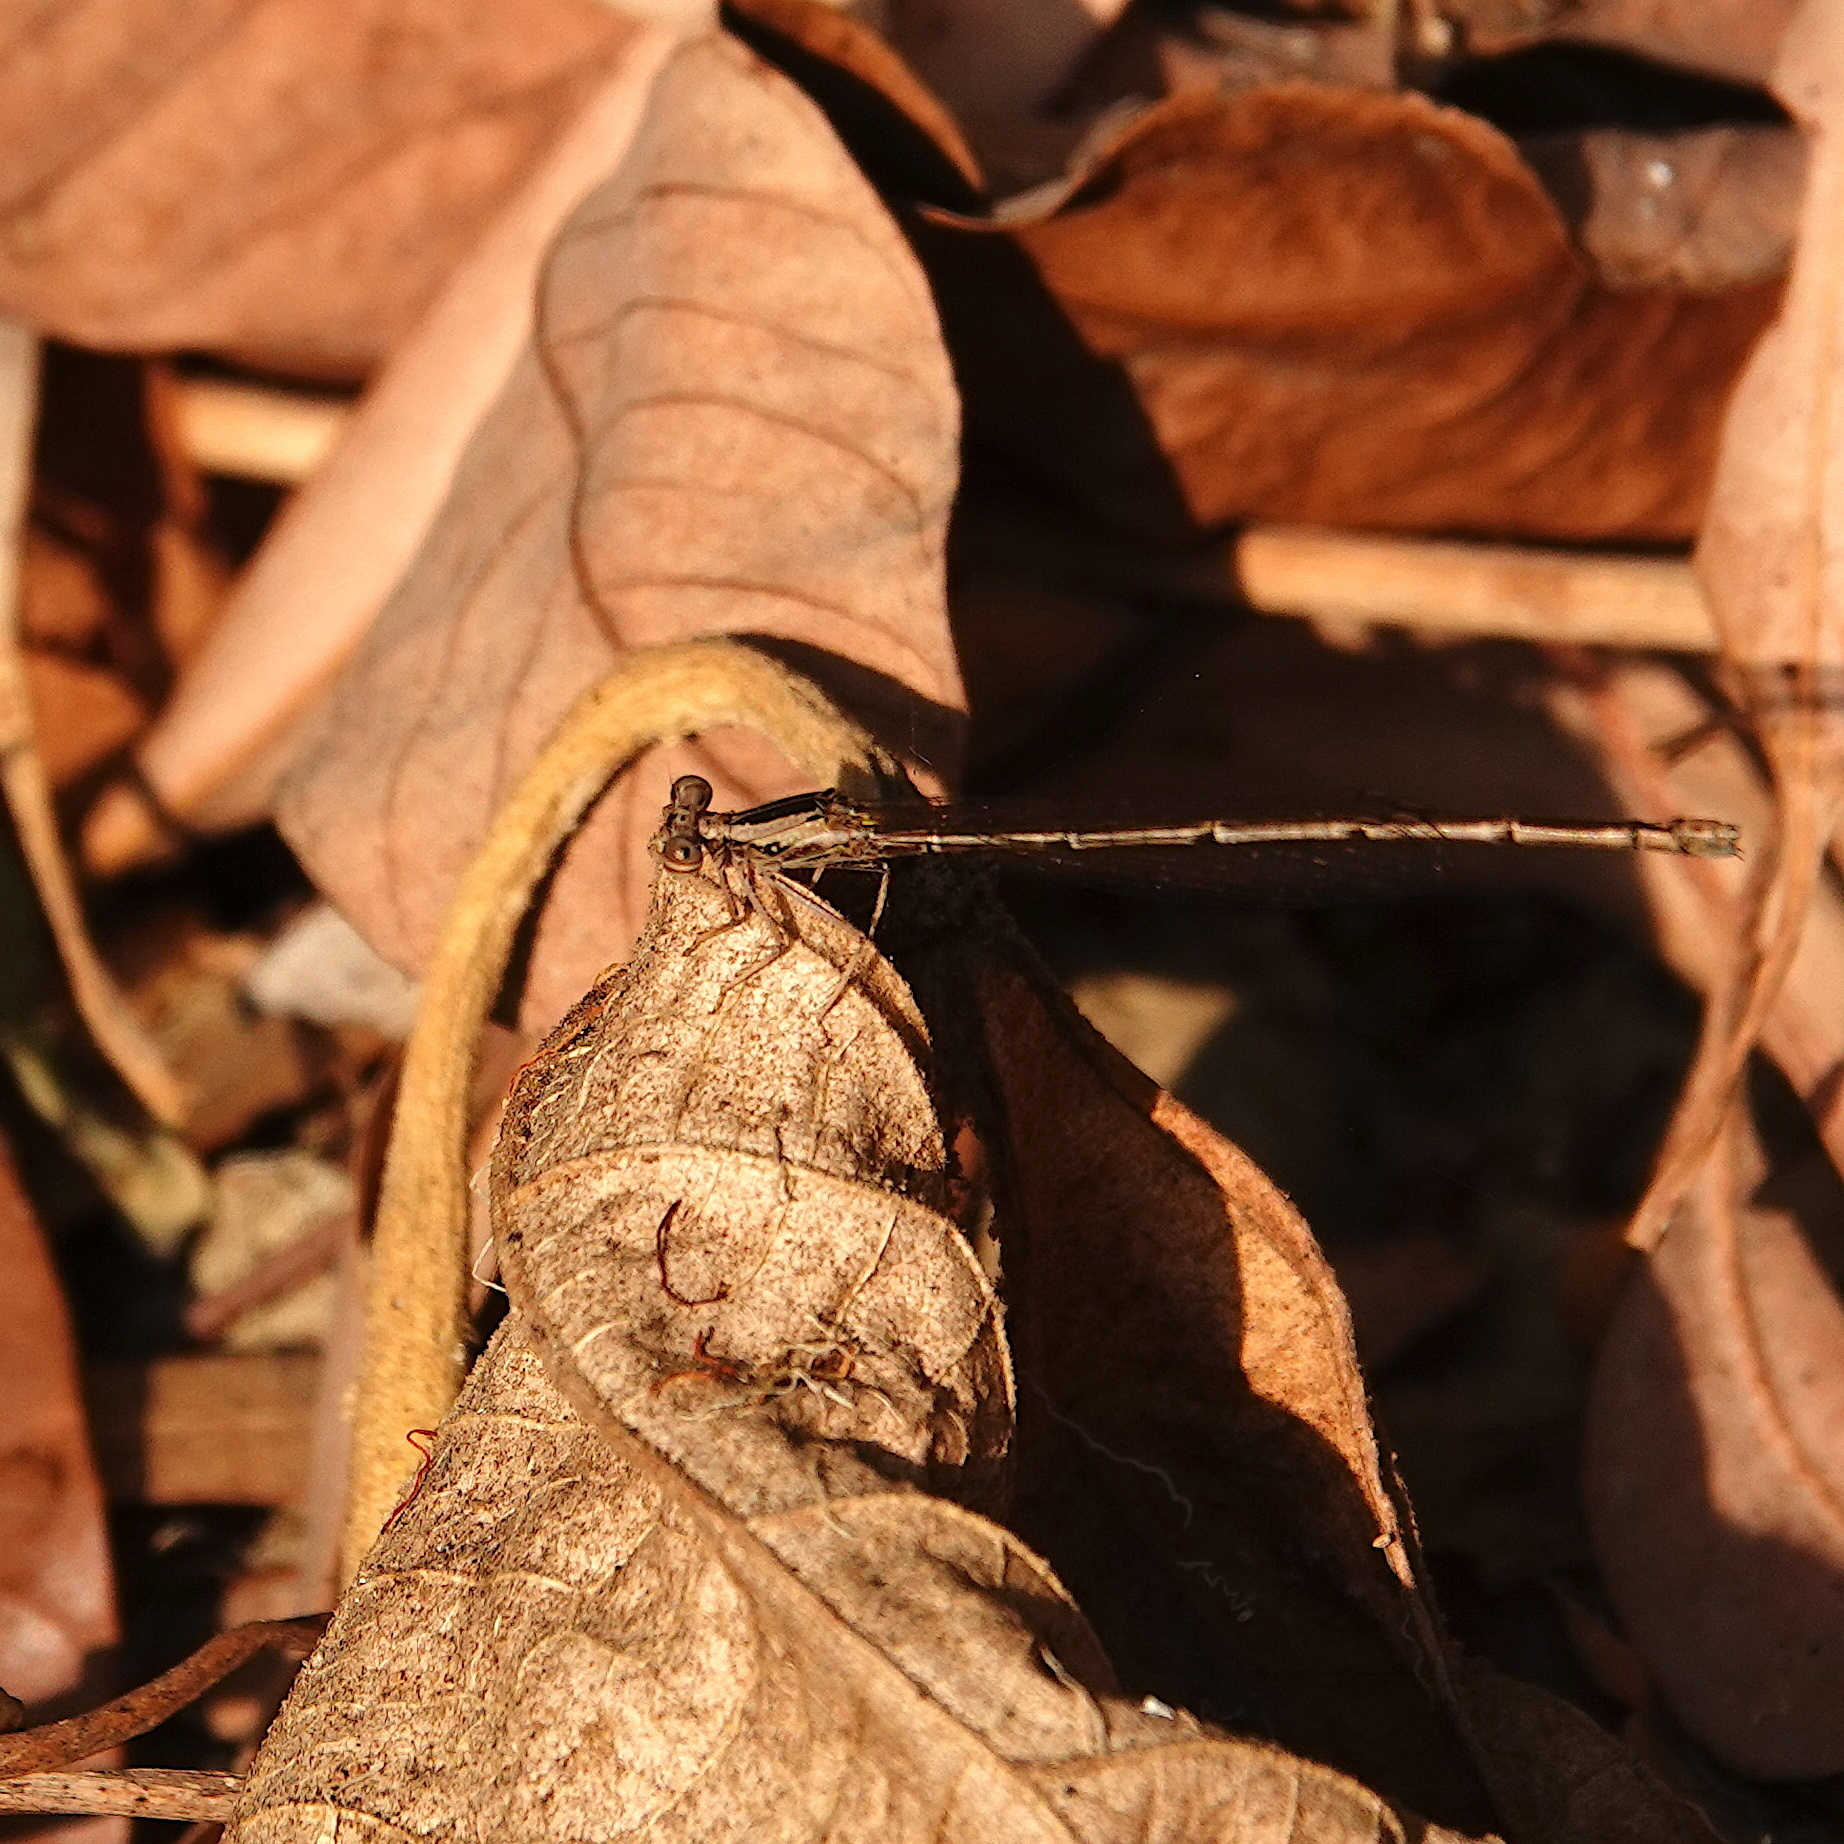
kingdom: Animalia
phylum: Arthropoda
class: Insecta
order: Odonata
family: Platycnemididae
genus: Copera
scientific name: Copera marginipes
